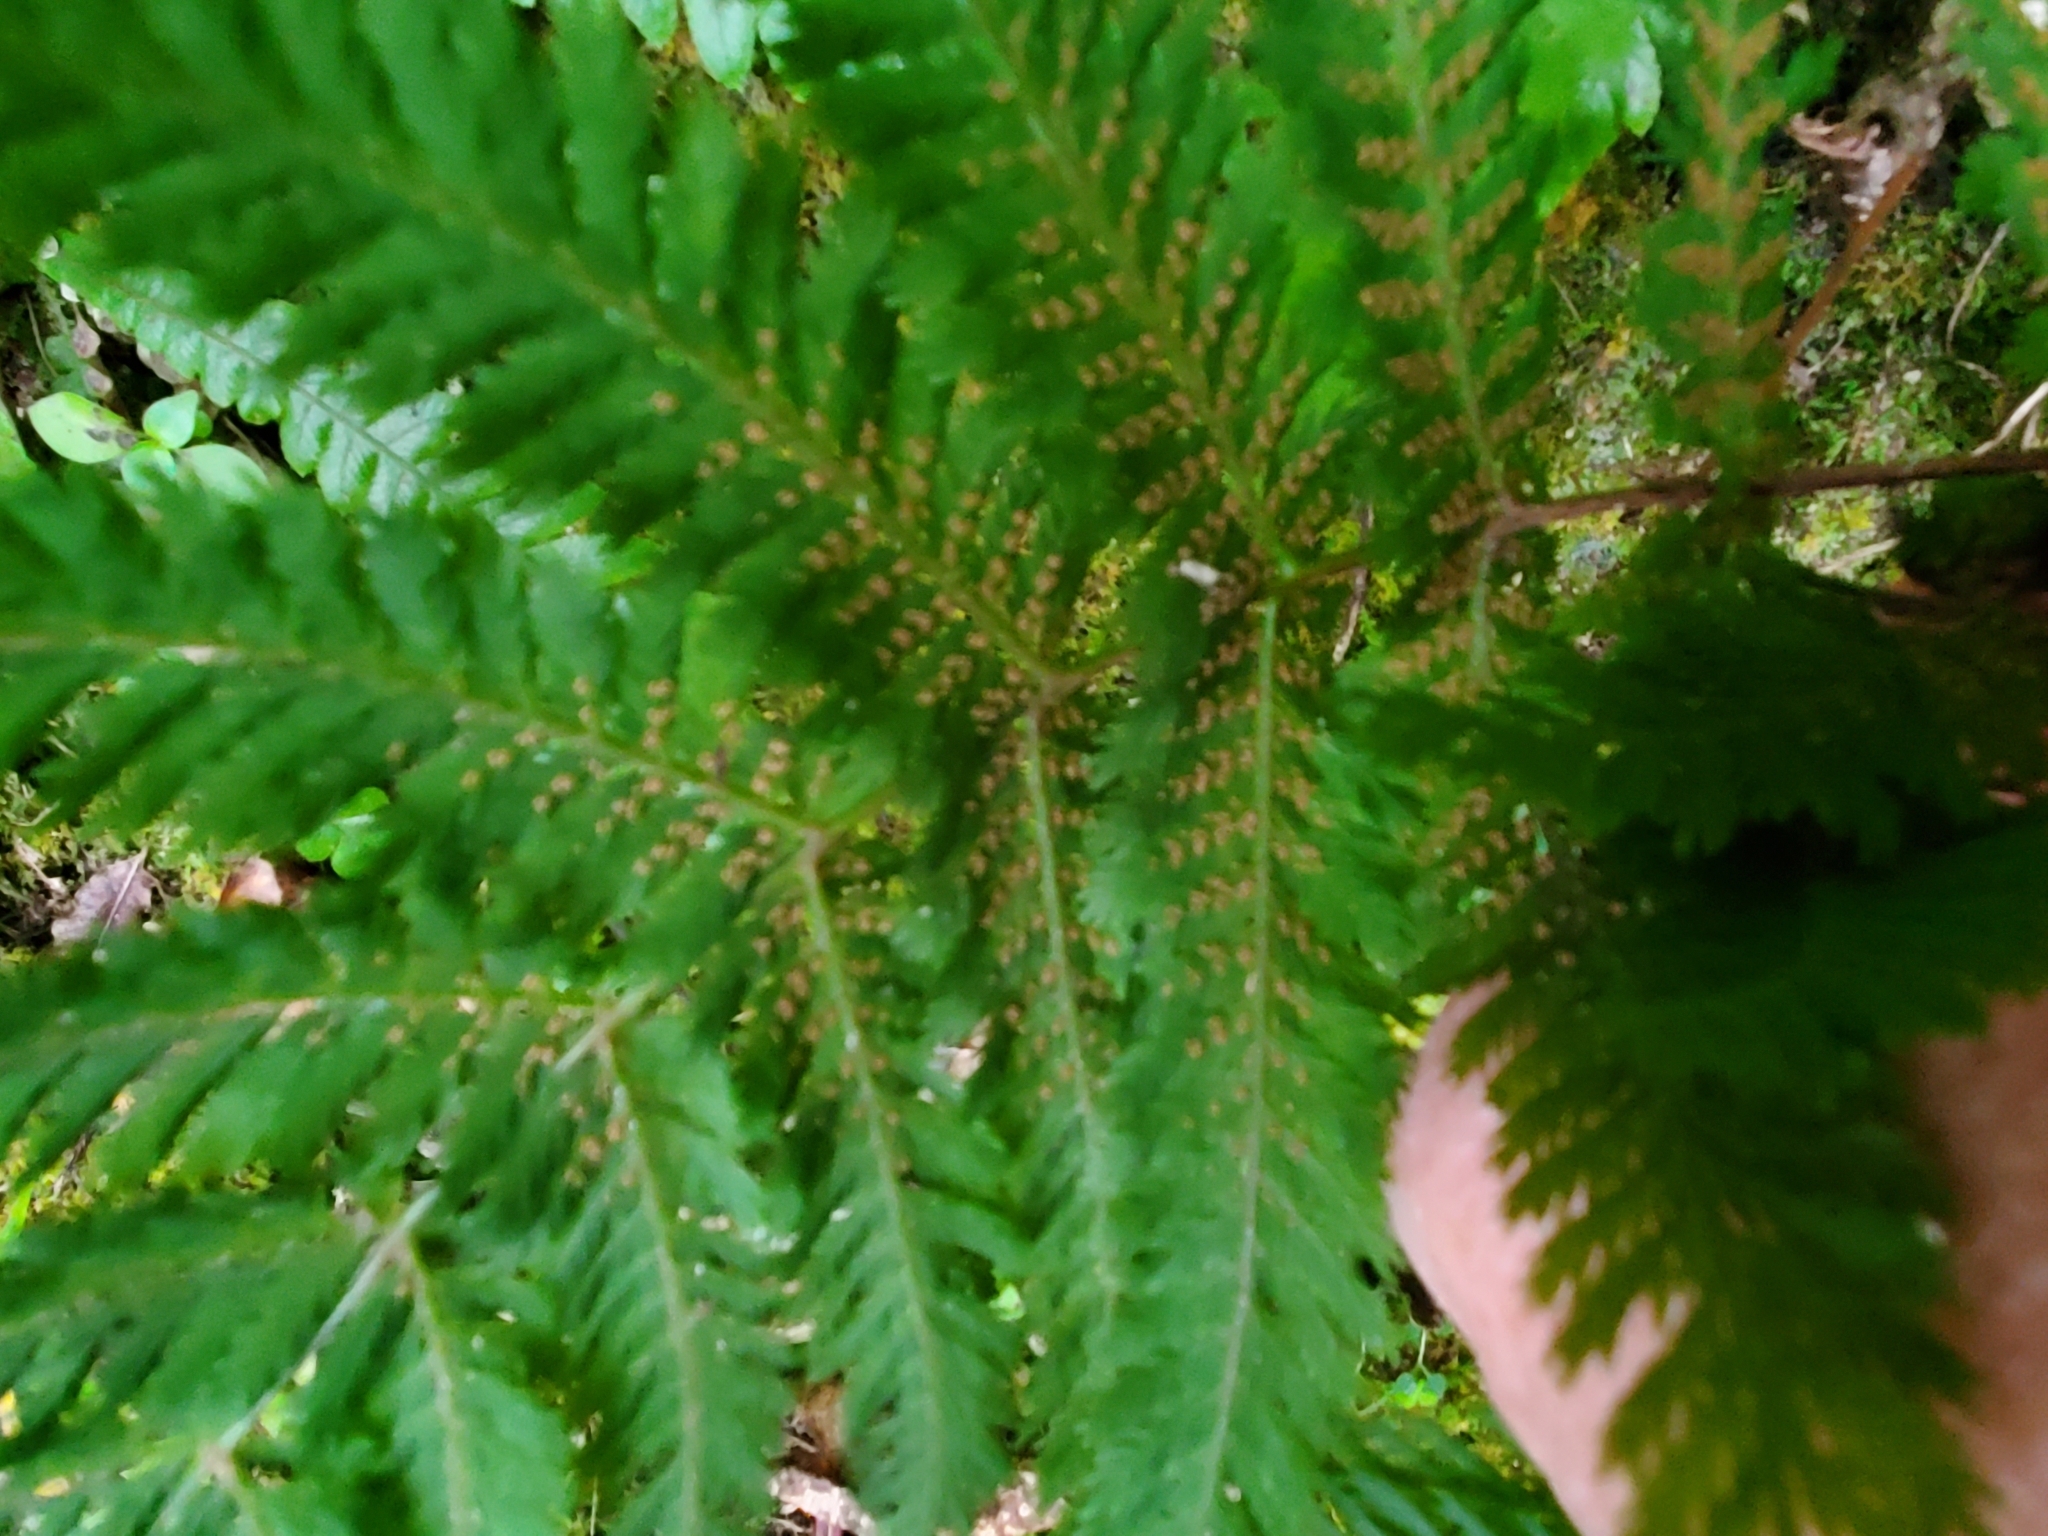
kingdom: Plantae
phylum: Tracheophyta
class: Polypodiopsida
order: Osmundales
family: Osmundaceae
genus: Leptopteris
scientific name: Leptopteris hymenophylloides
